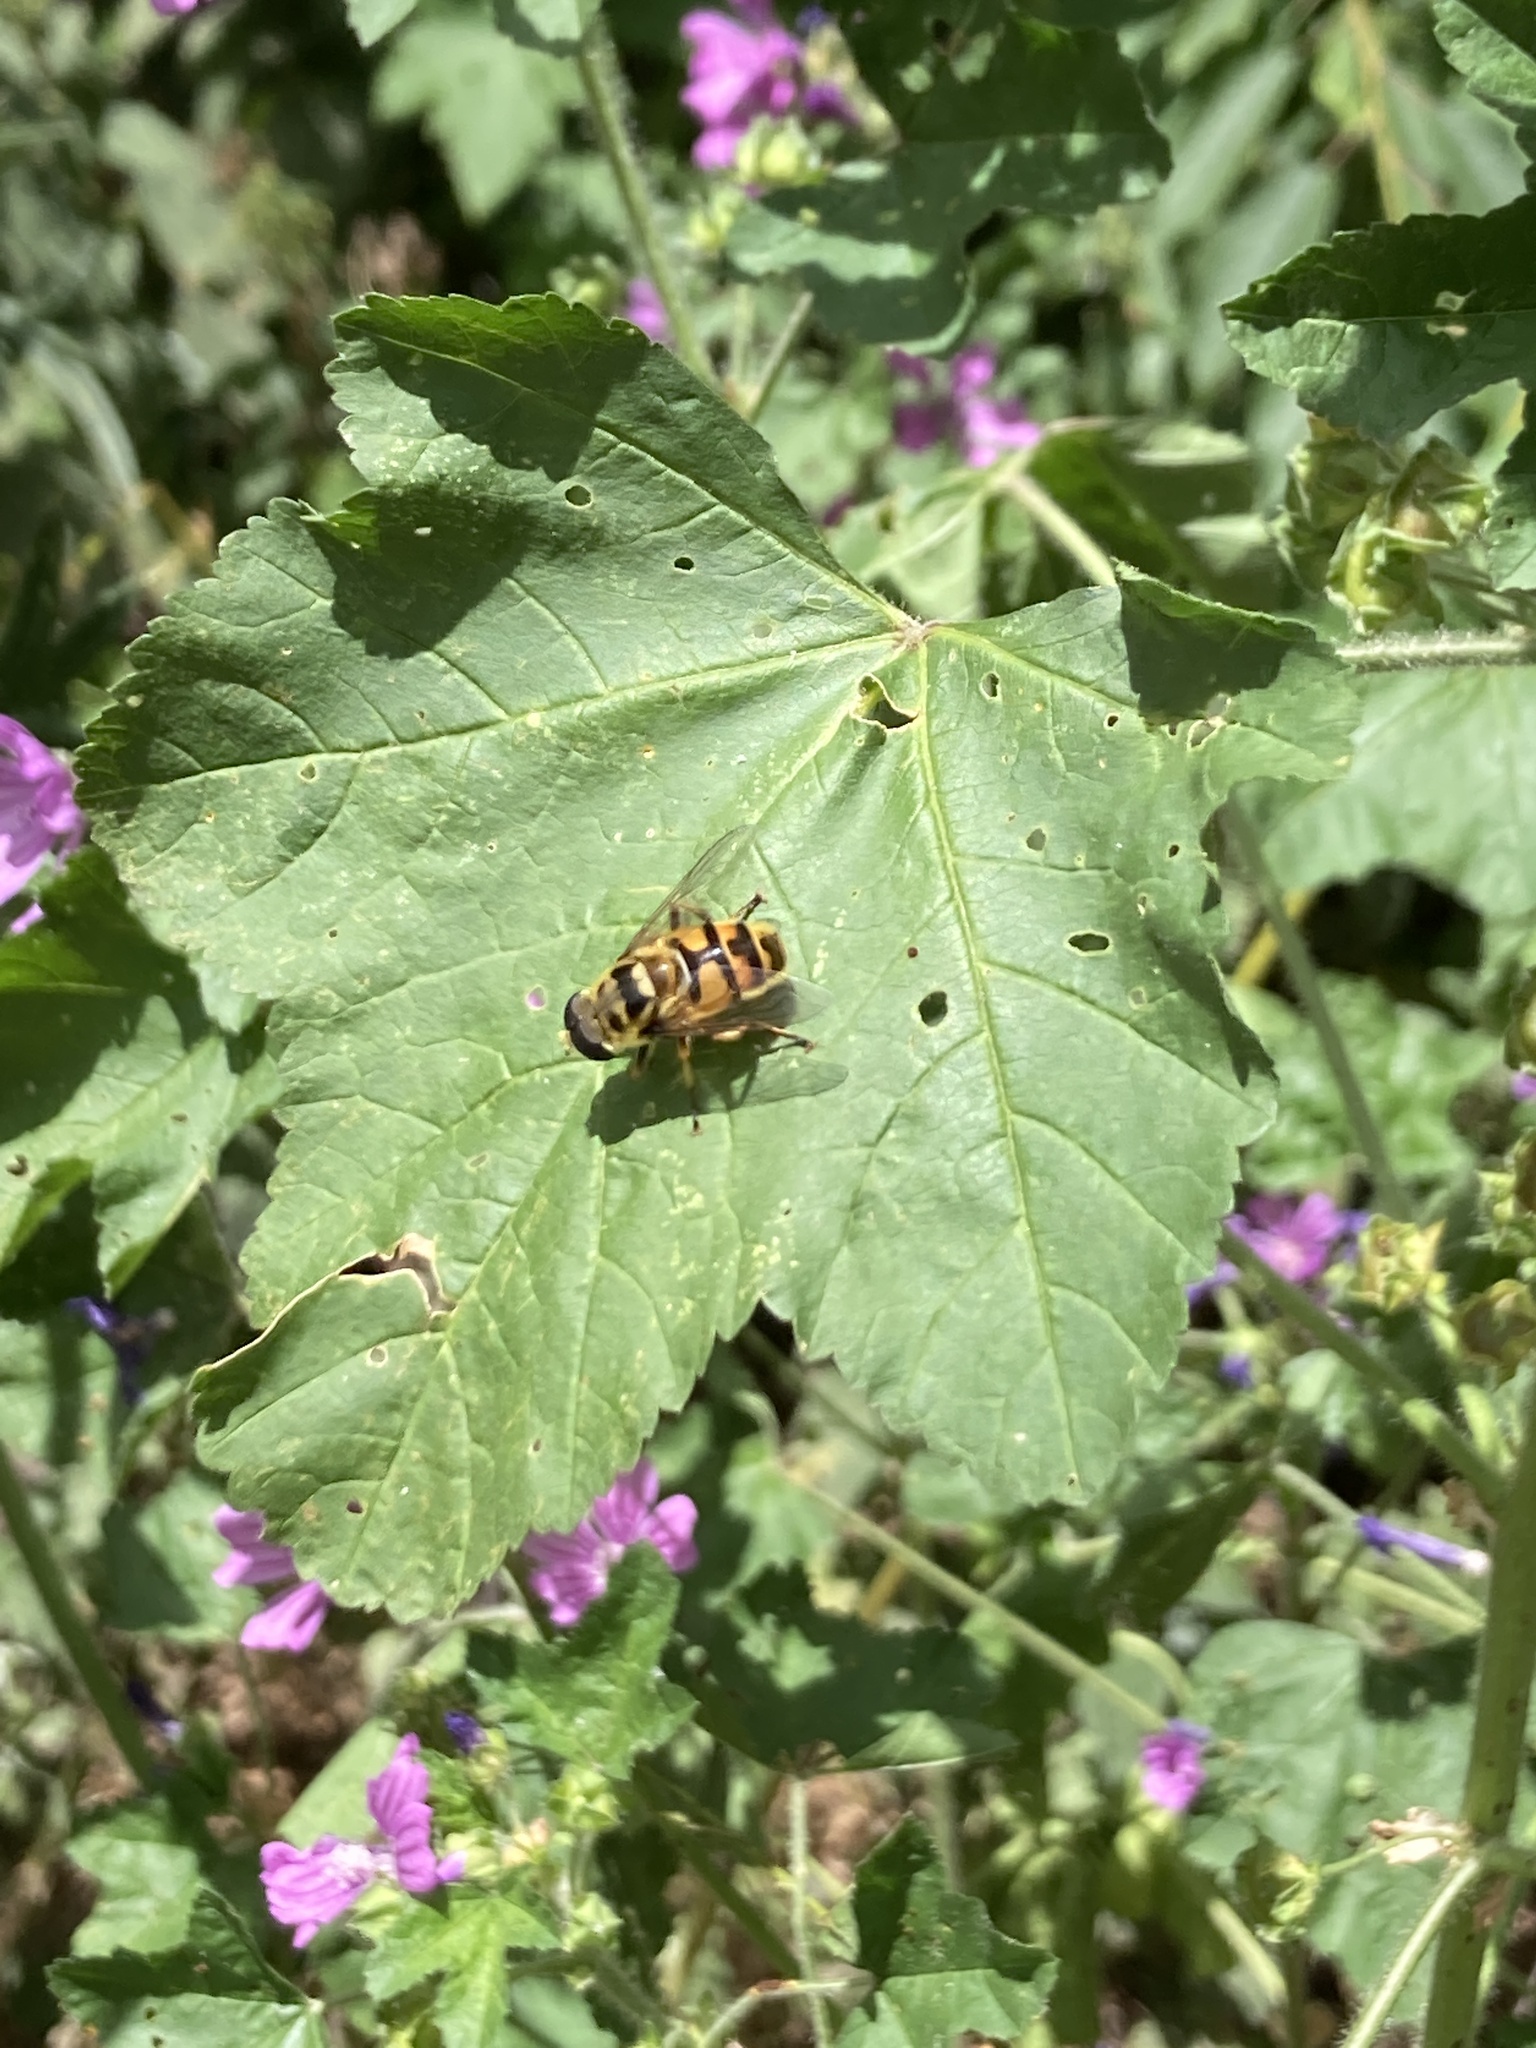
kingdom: Animalia
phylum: Arthropoda
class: Insecta
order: Diptera
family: Syrphidae
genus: Myathropa
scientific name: Myathropa florea
